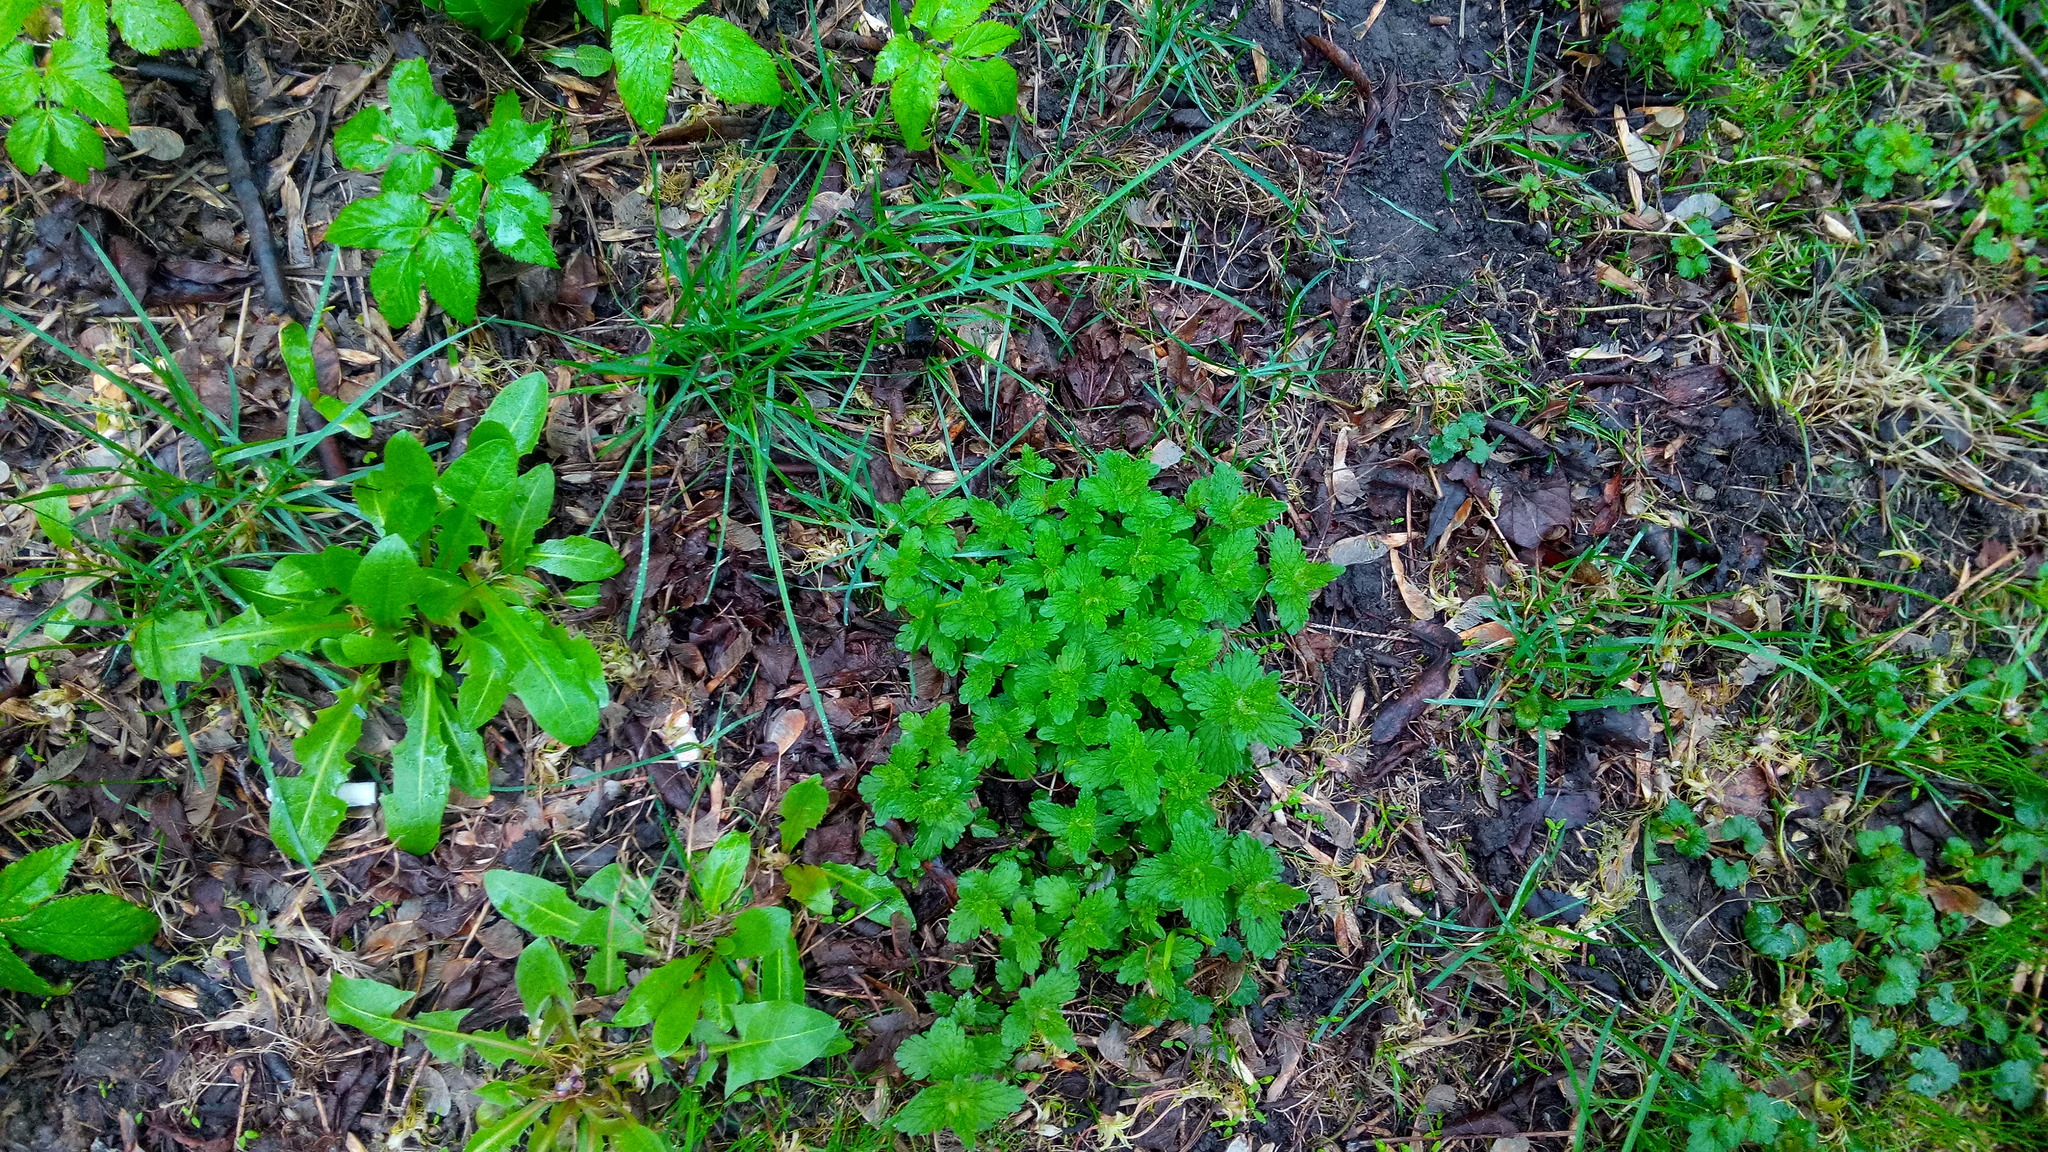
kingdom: Plantae
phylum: Tracheophyta
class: Magnoliopsida
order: Lamiales
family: Plantaginaceae
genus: Veronica
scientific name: Veronica chamaedrys
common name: Germander speedwell
